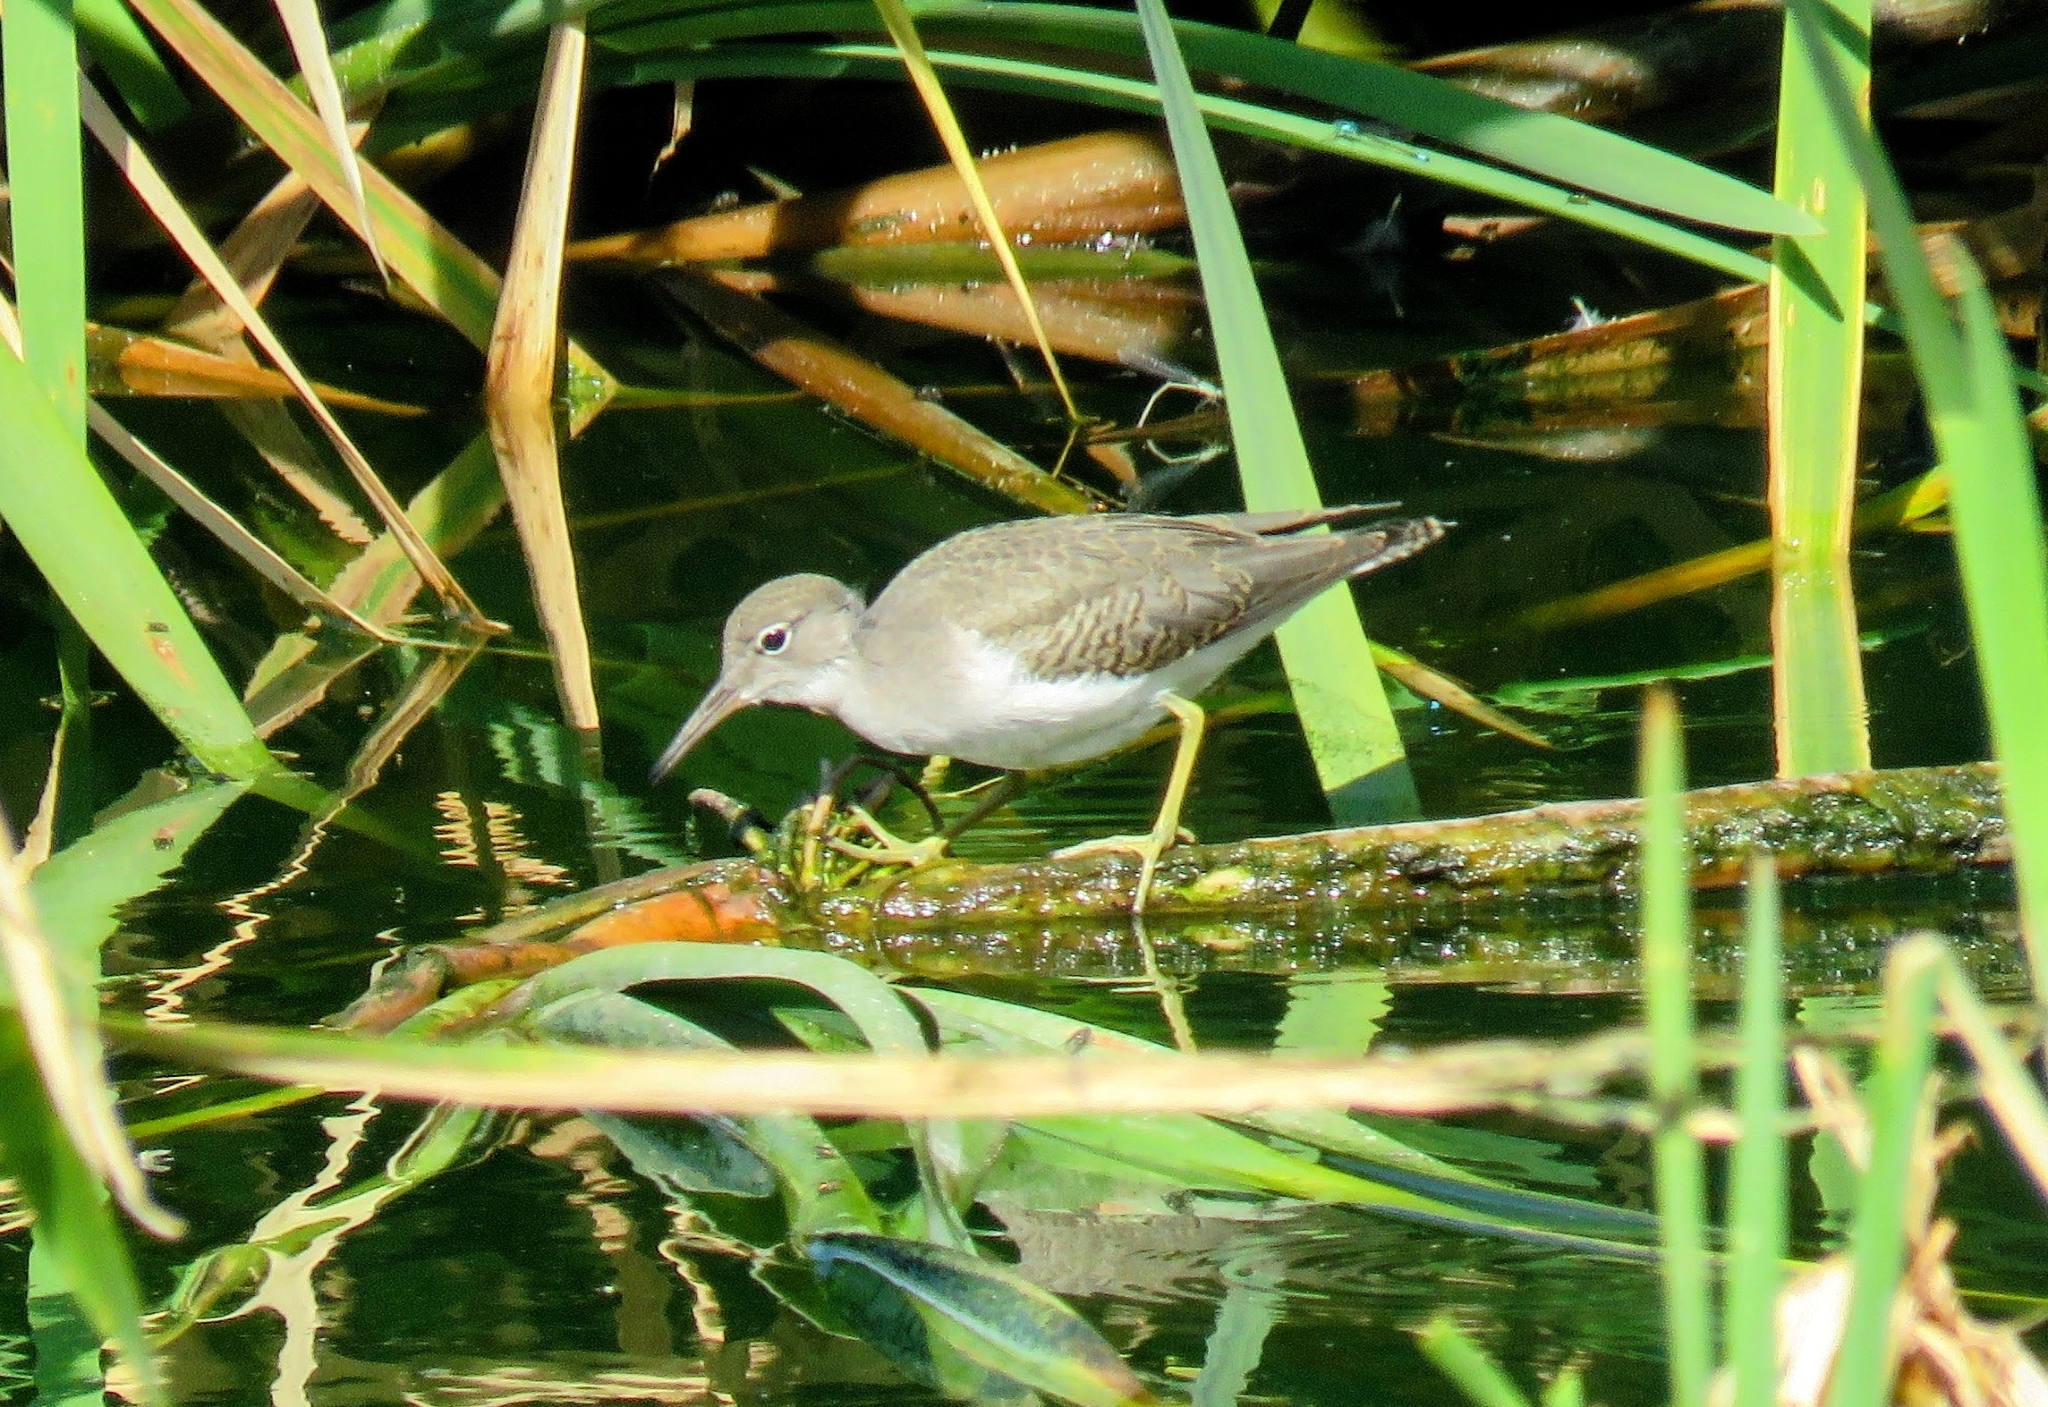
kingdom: Animalia
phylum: Chordata
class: Aves
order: Charadriiformes
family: Scolopacidae
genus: Actitis
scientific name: Actitis macularius
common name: Spotted sandpiper
